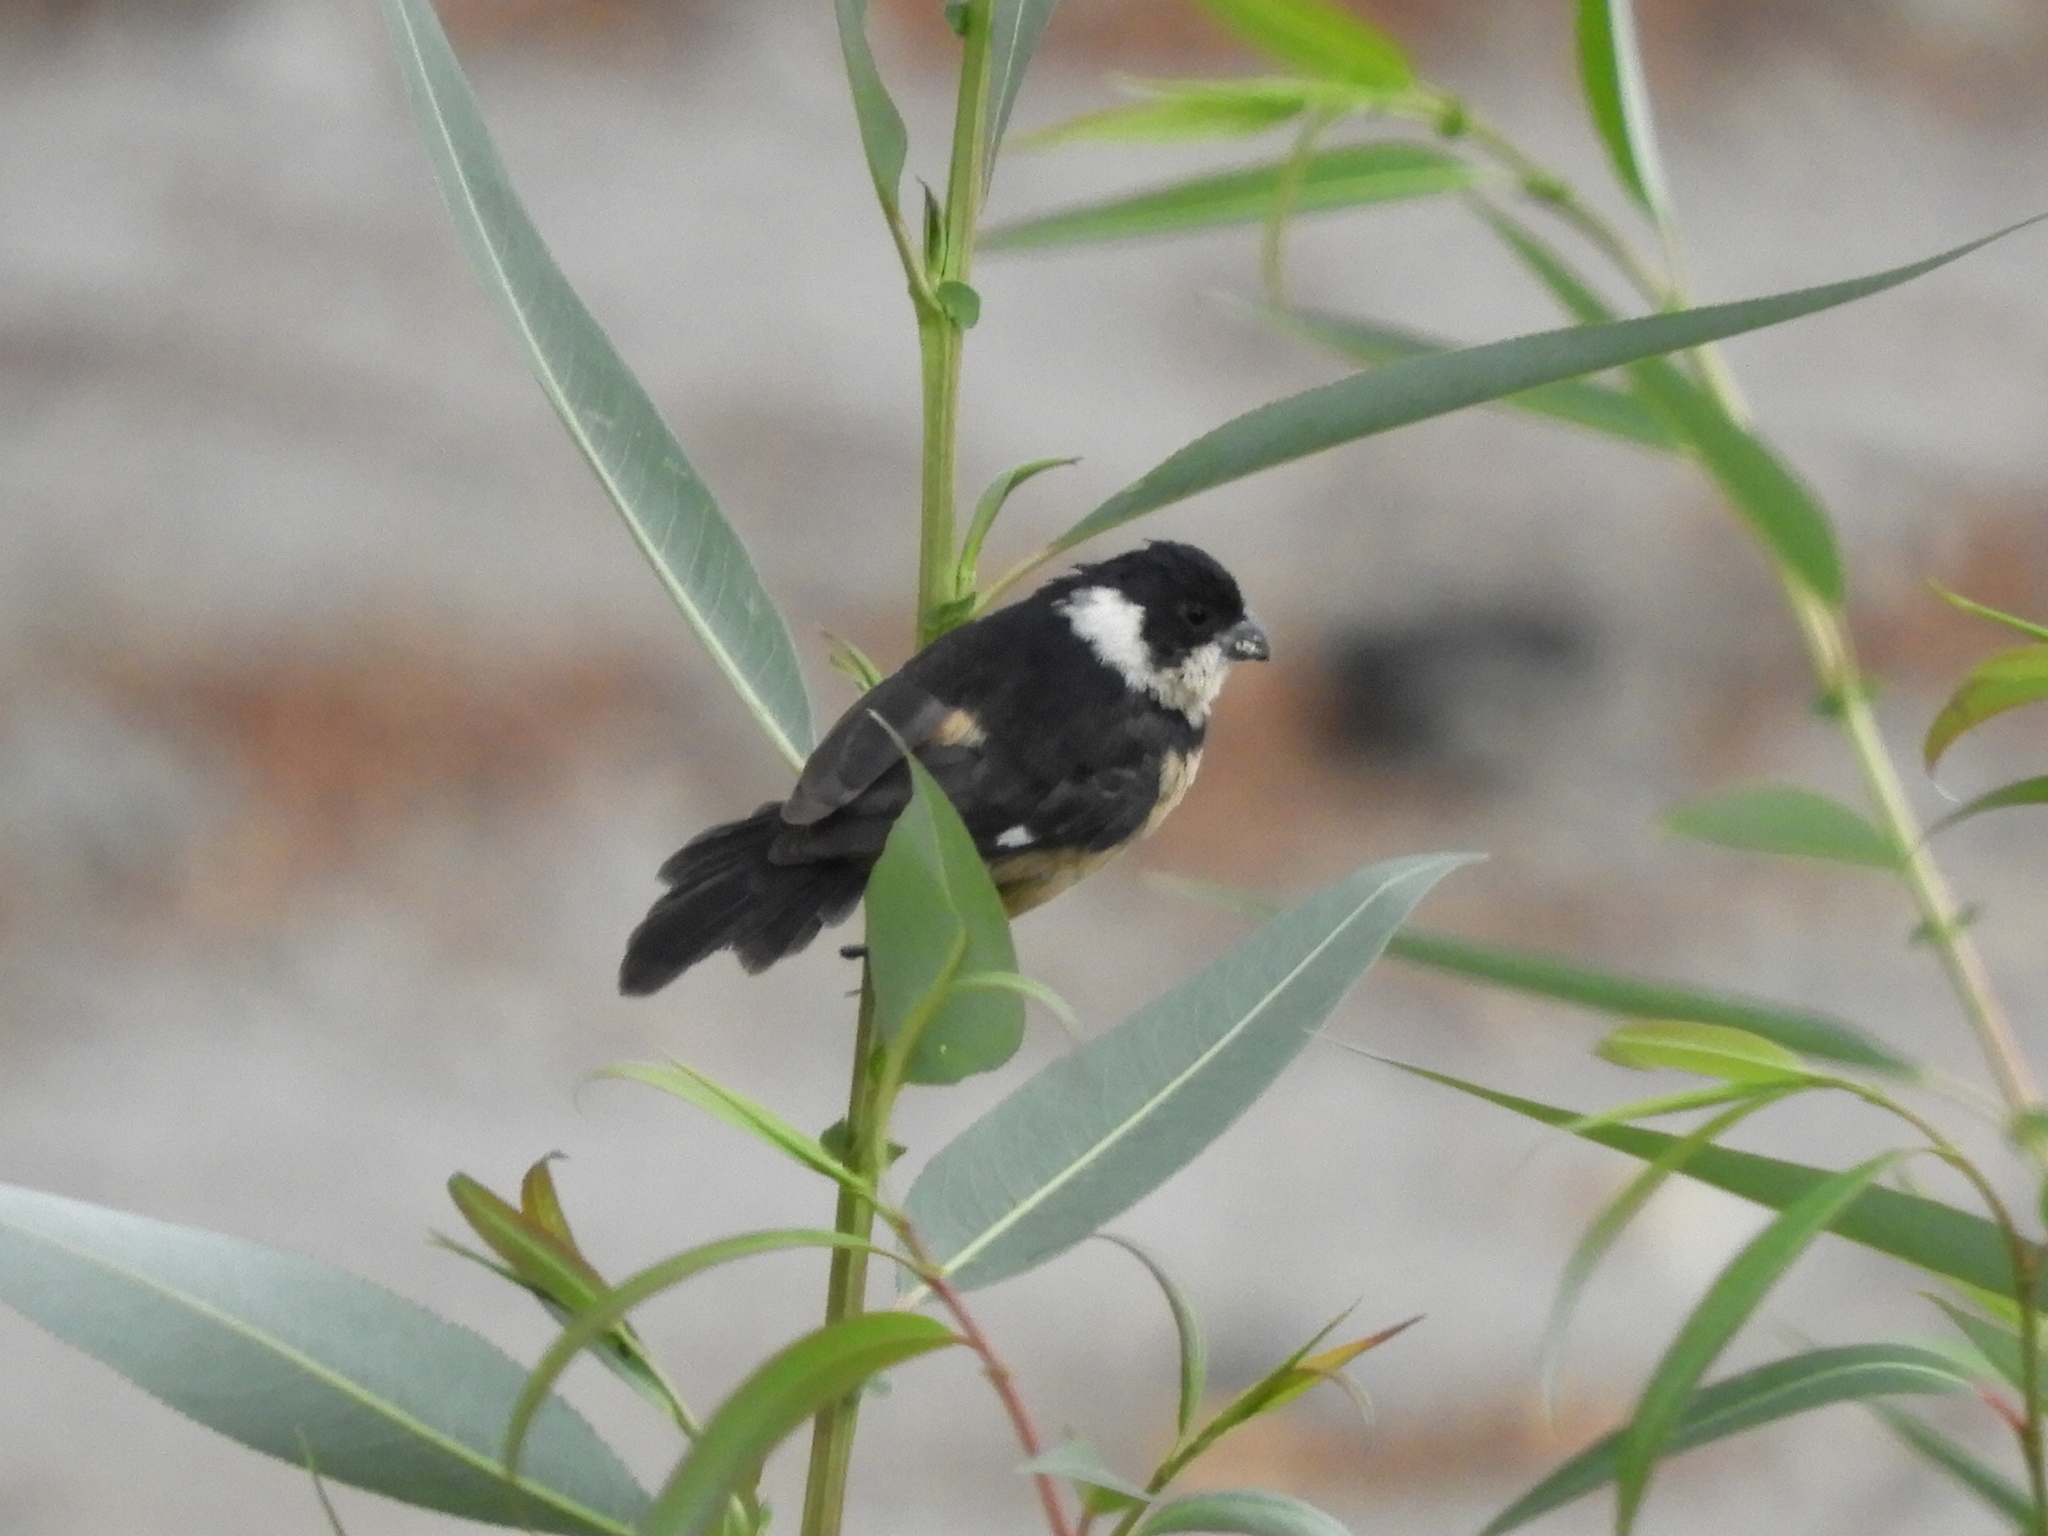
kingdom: Animalia
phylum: Chordata
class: Aves
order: Passeriformes
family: Thraupidae
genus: Sporophila
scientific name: Sporophila torqueola
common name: White-collared seedeater
